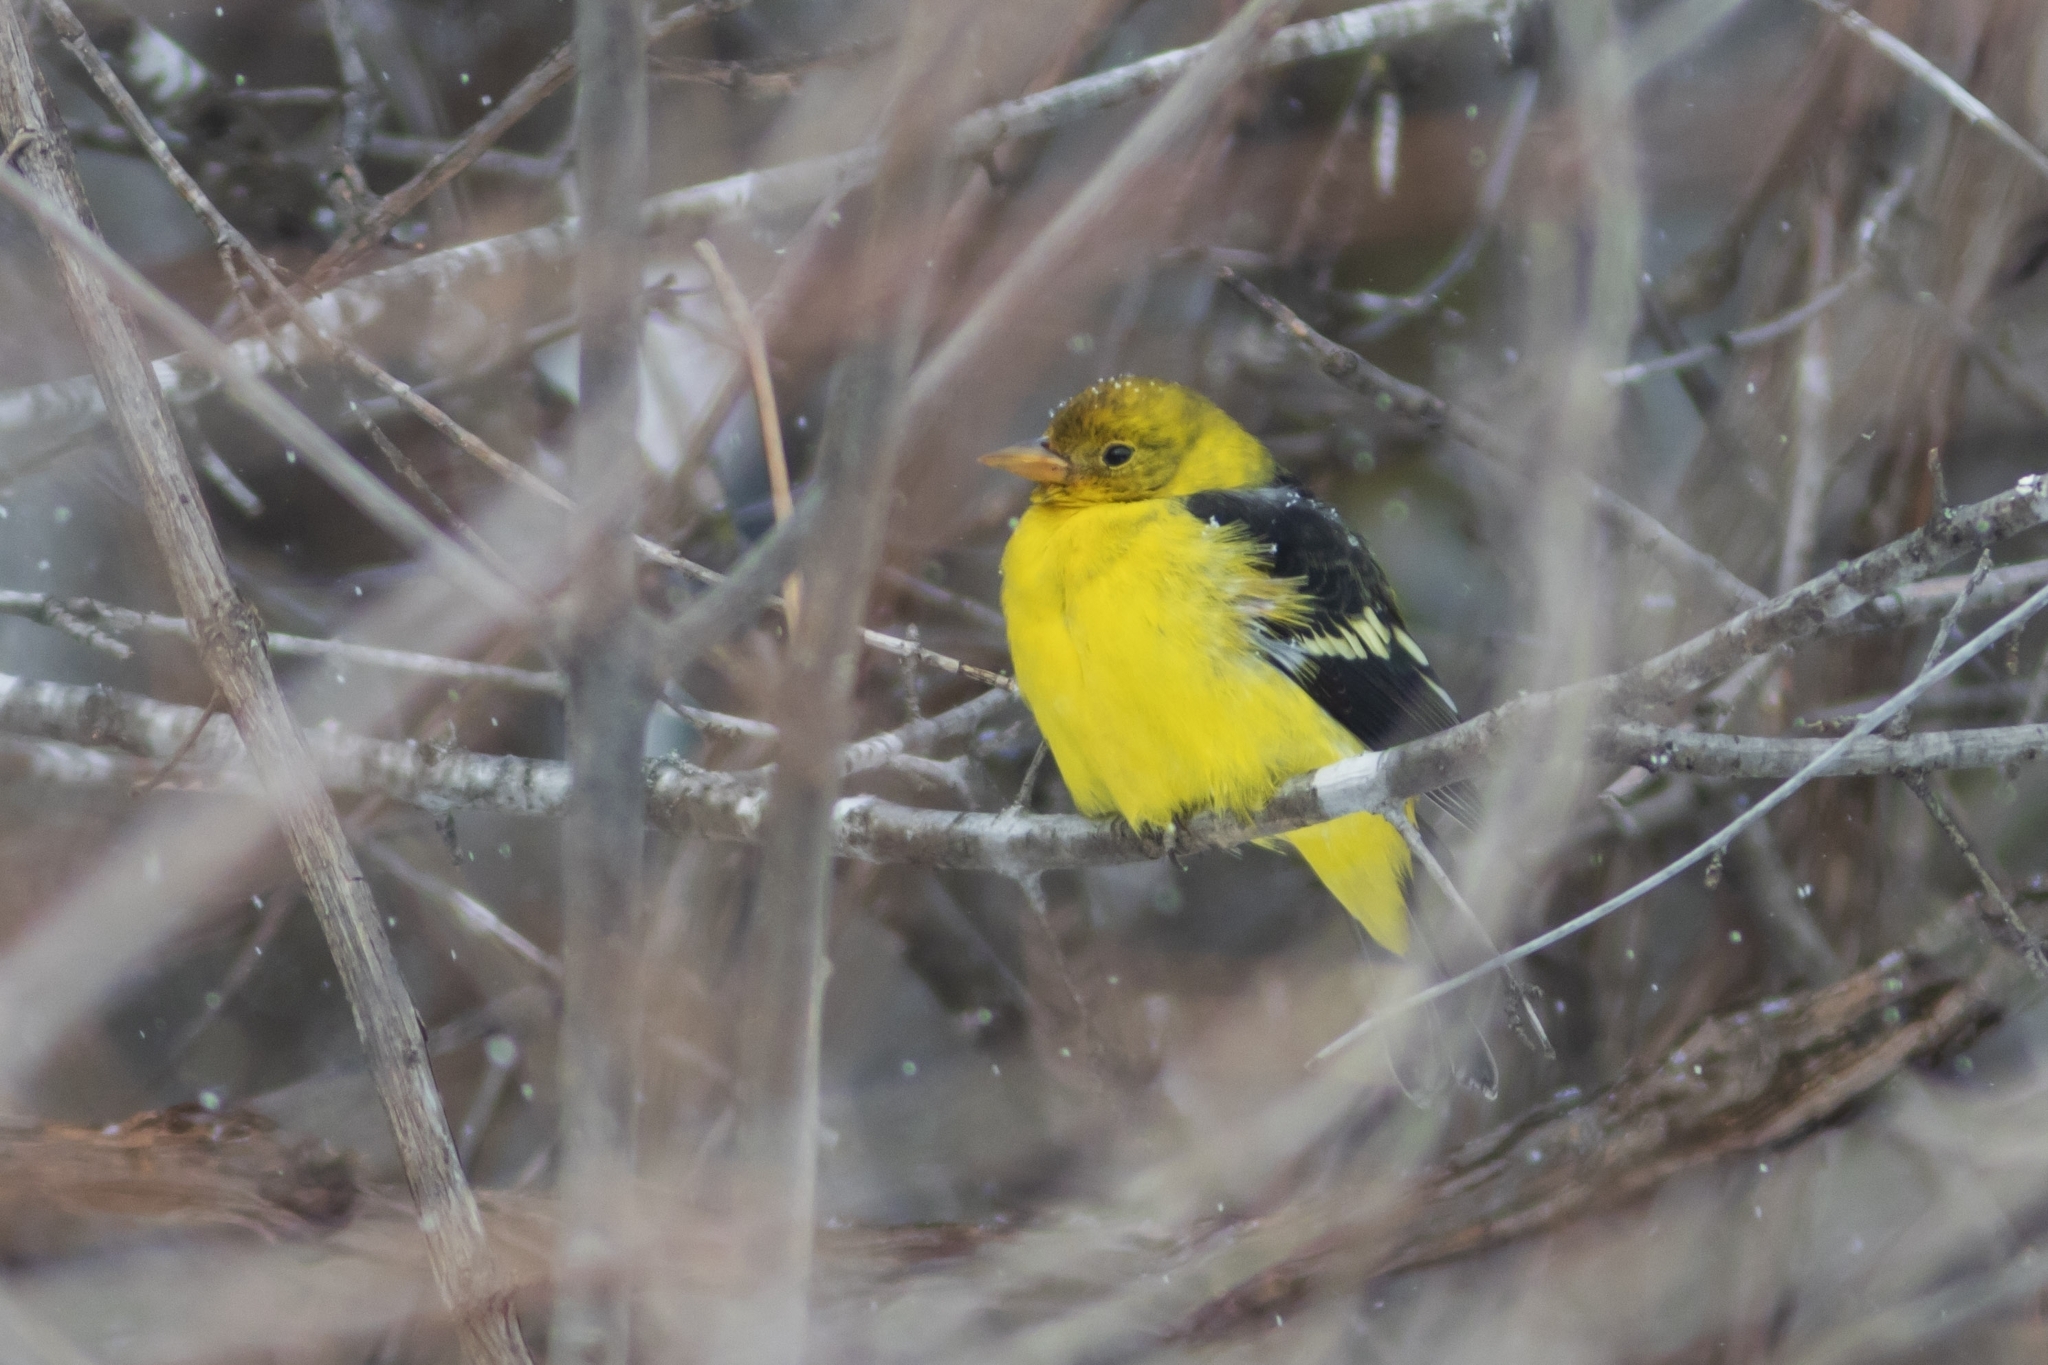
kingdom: Animalia
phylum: Chordata
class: Aves
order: Passeriformes
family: Cardinalidae
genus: Piranga
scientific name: Piranga ludoviciana
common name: Western tanager
